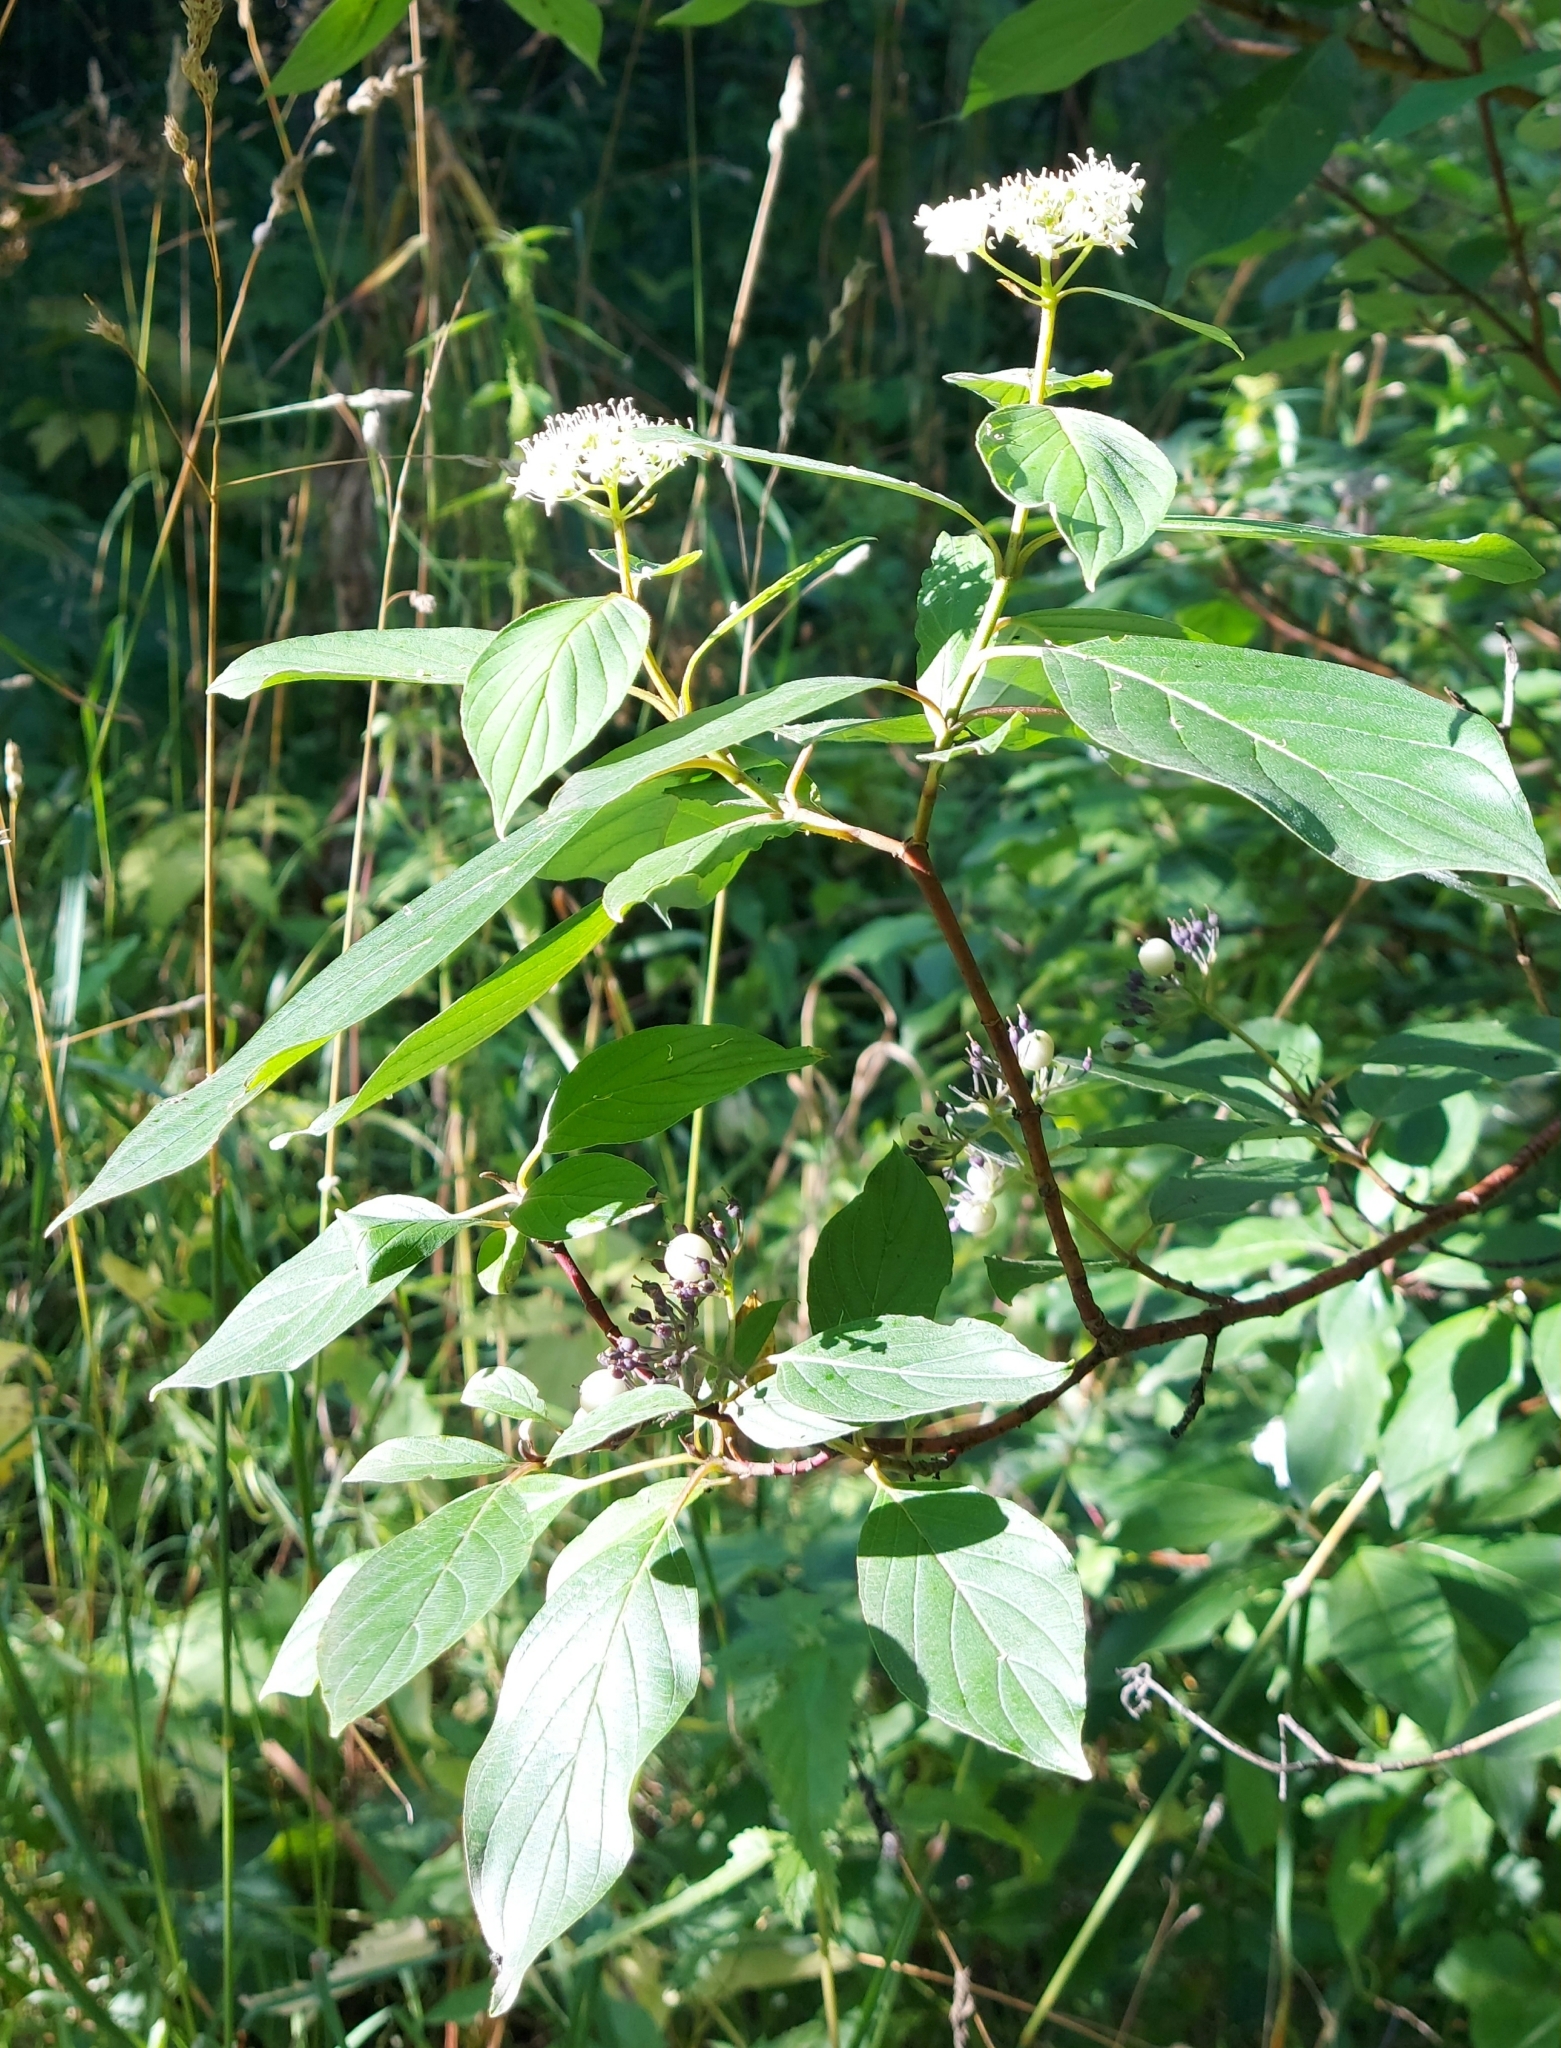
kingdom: Plantae
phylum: Tracheophyta
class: Magnoliopsida
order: Cornales
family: Cornaceae
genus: Cornus
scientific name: Cornus alba
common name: White dogwood
